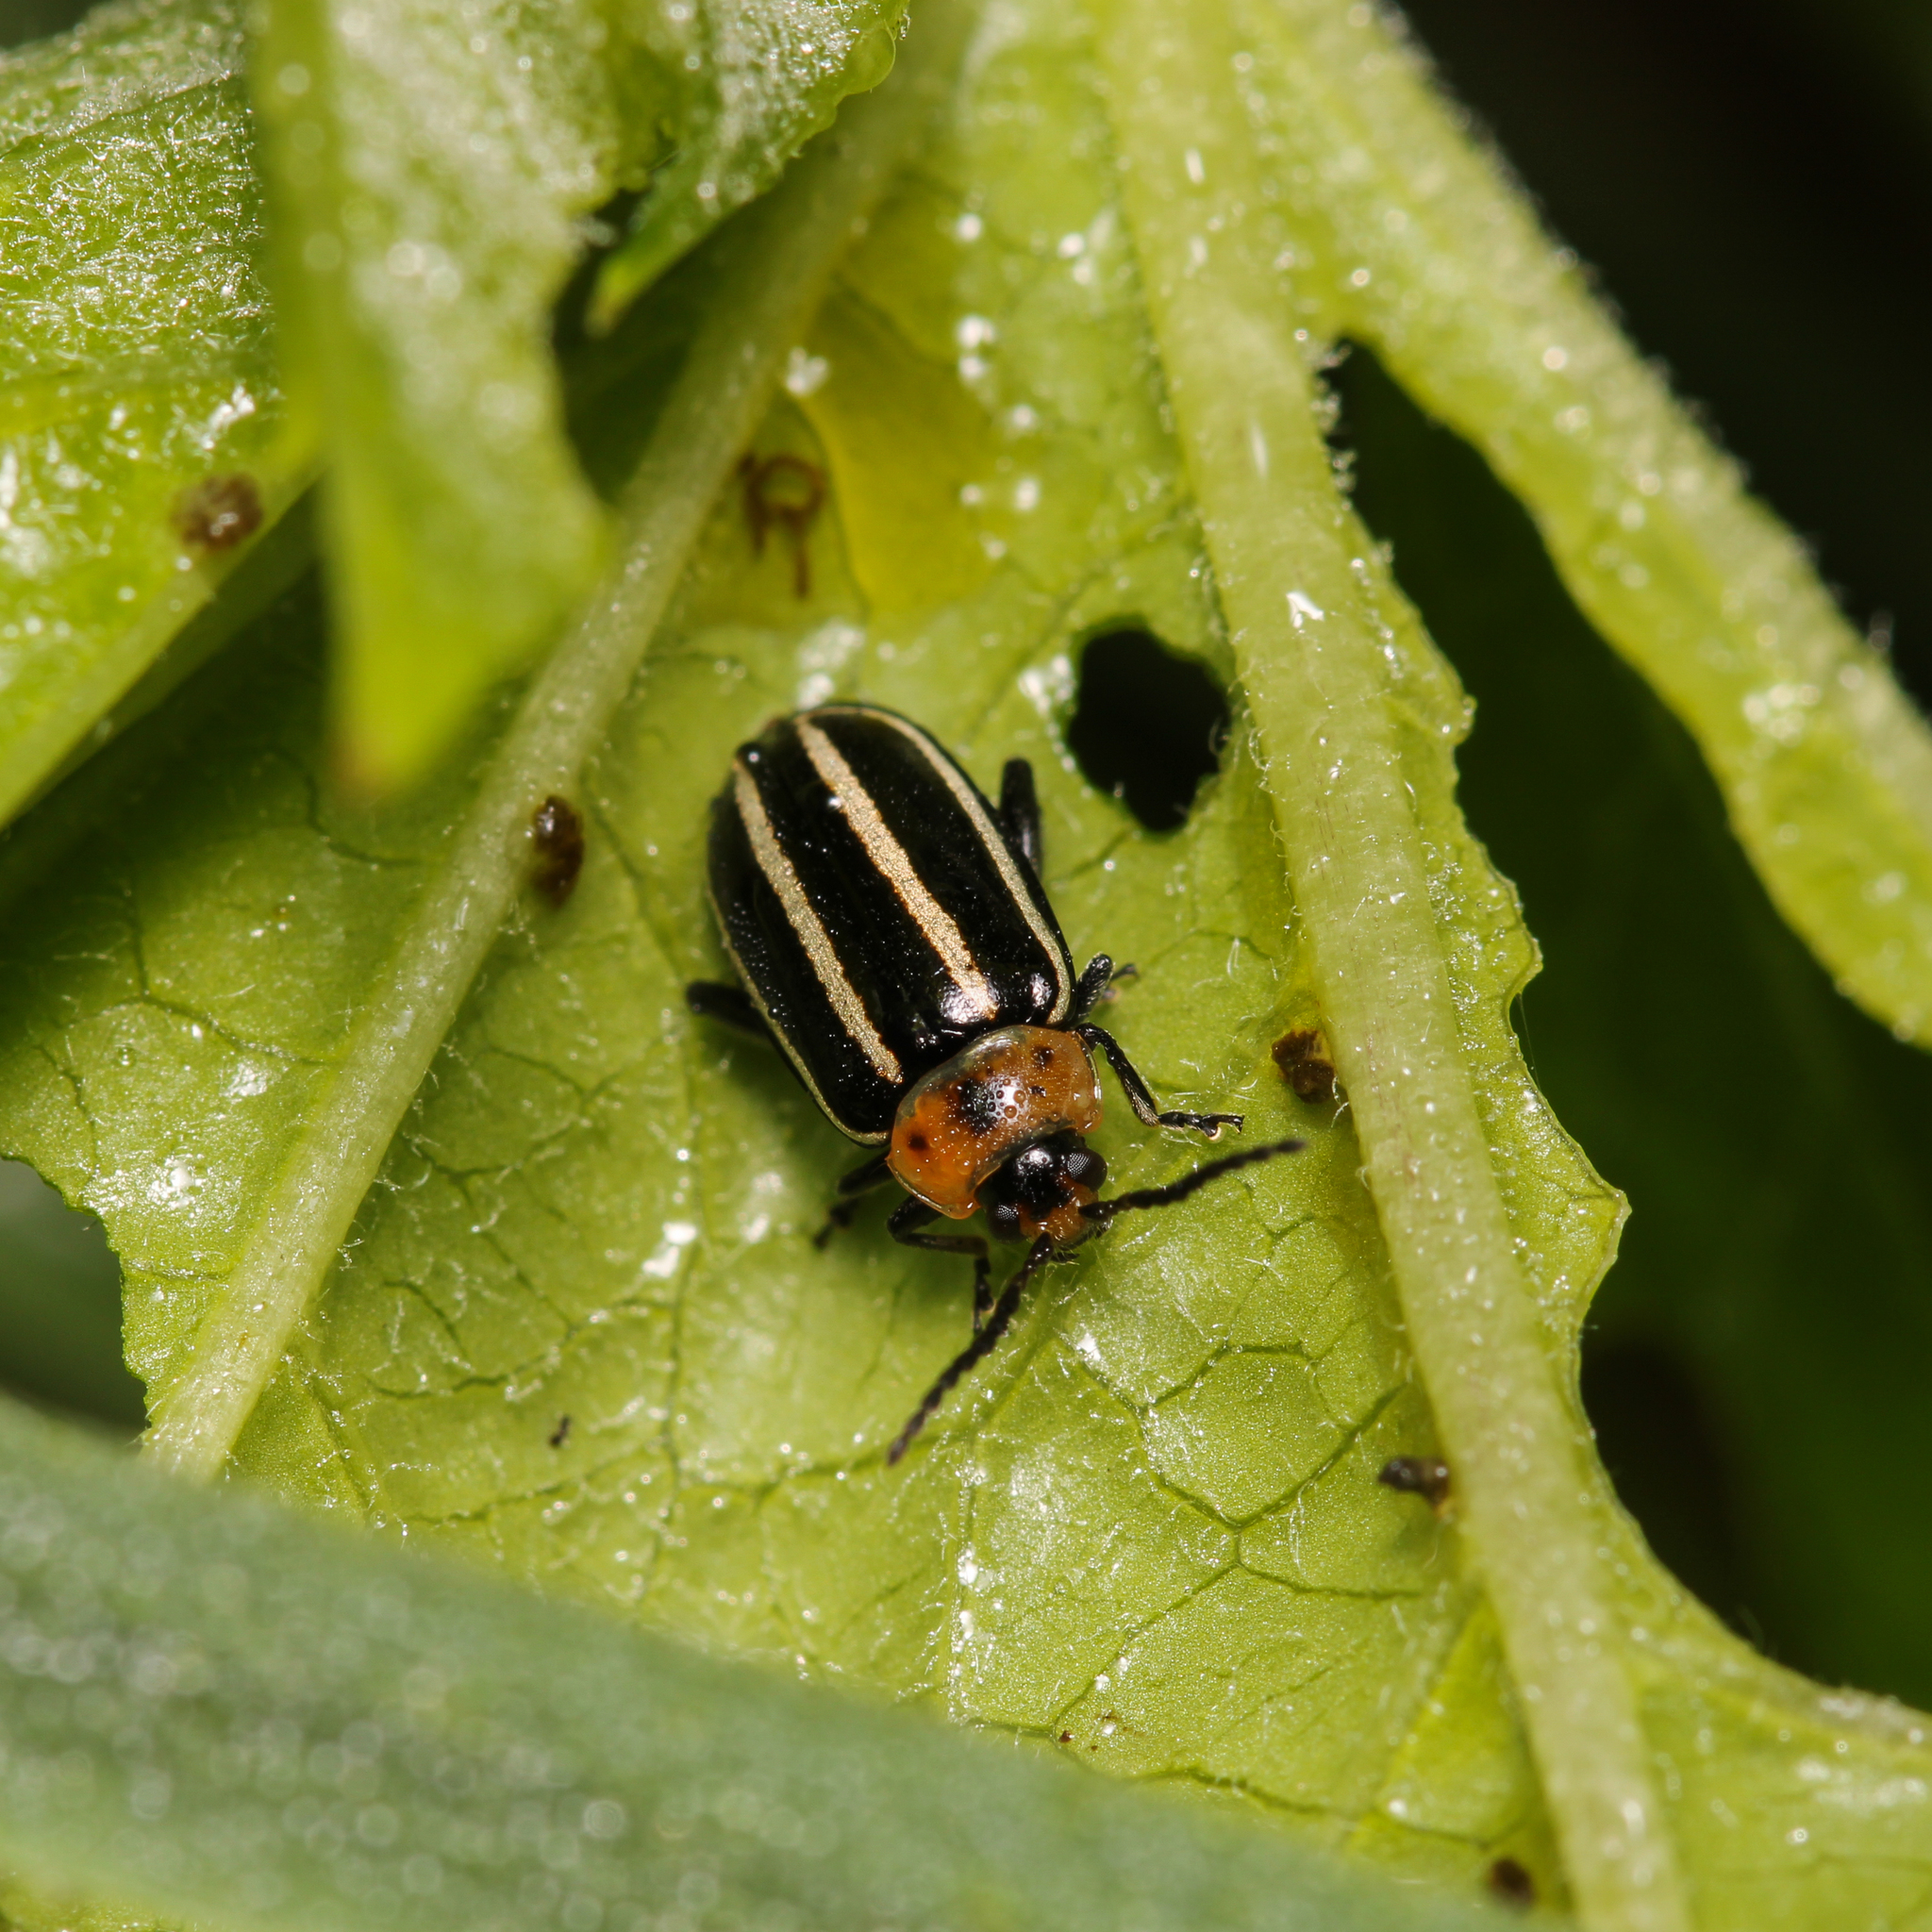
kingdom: Animalia
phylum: Arthropoda
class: Insecta
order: Coleoptera
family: Chrysomelidae
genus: Disonycha
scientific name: Disonycha glabrata
